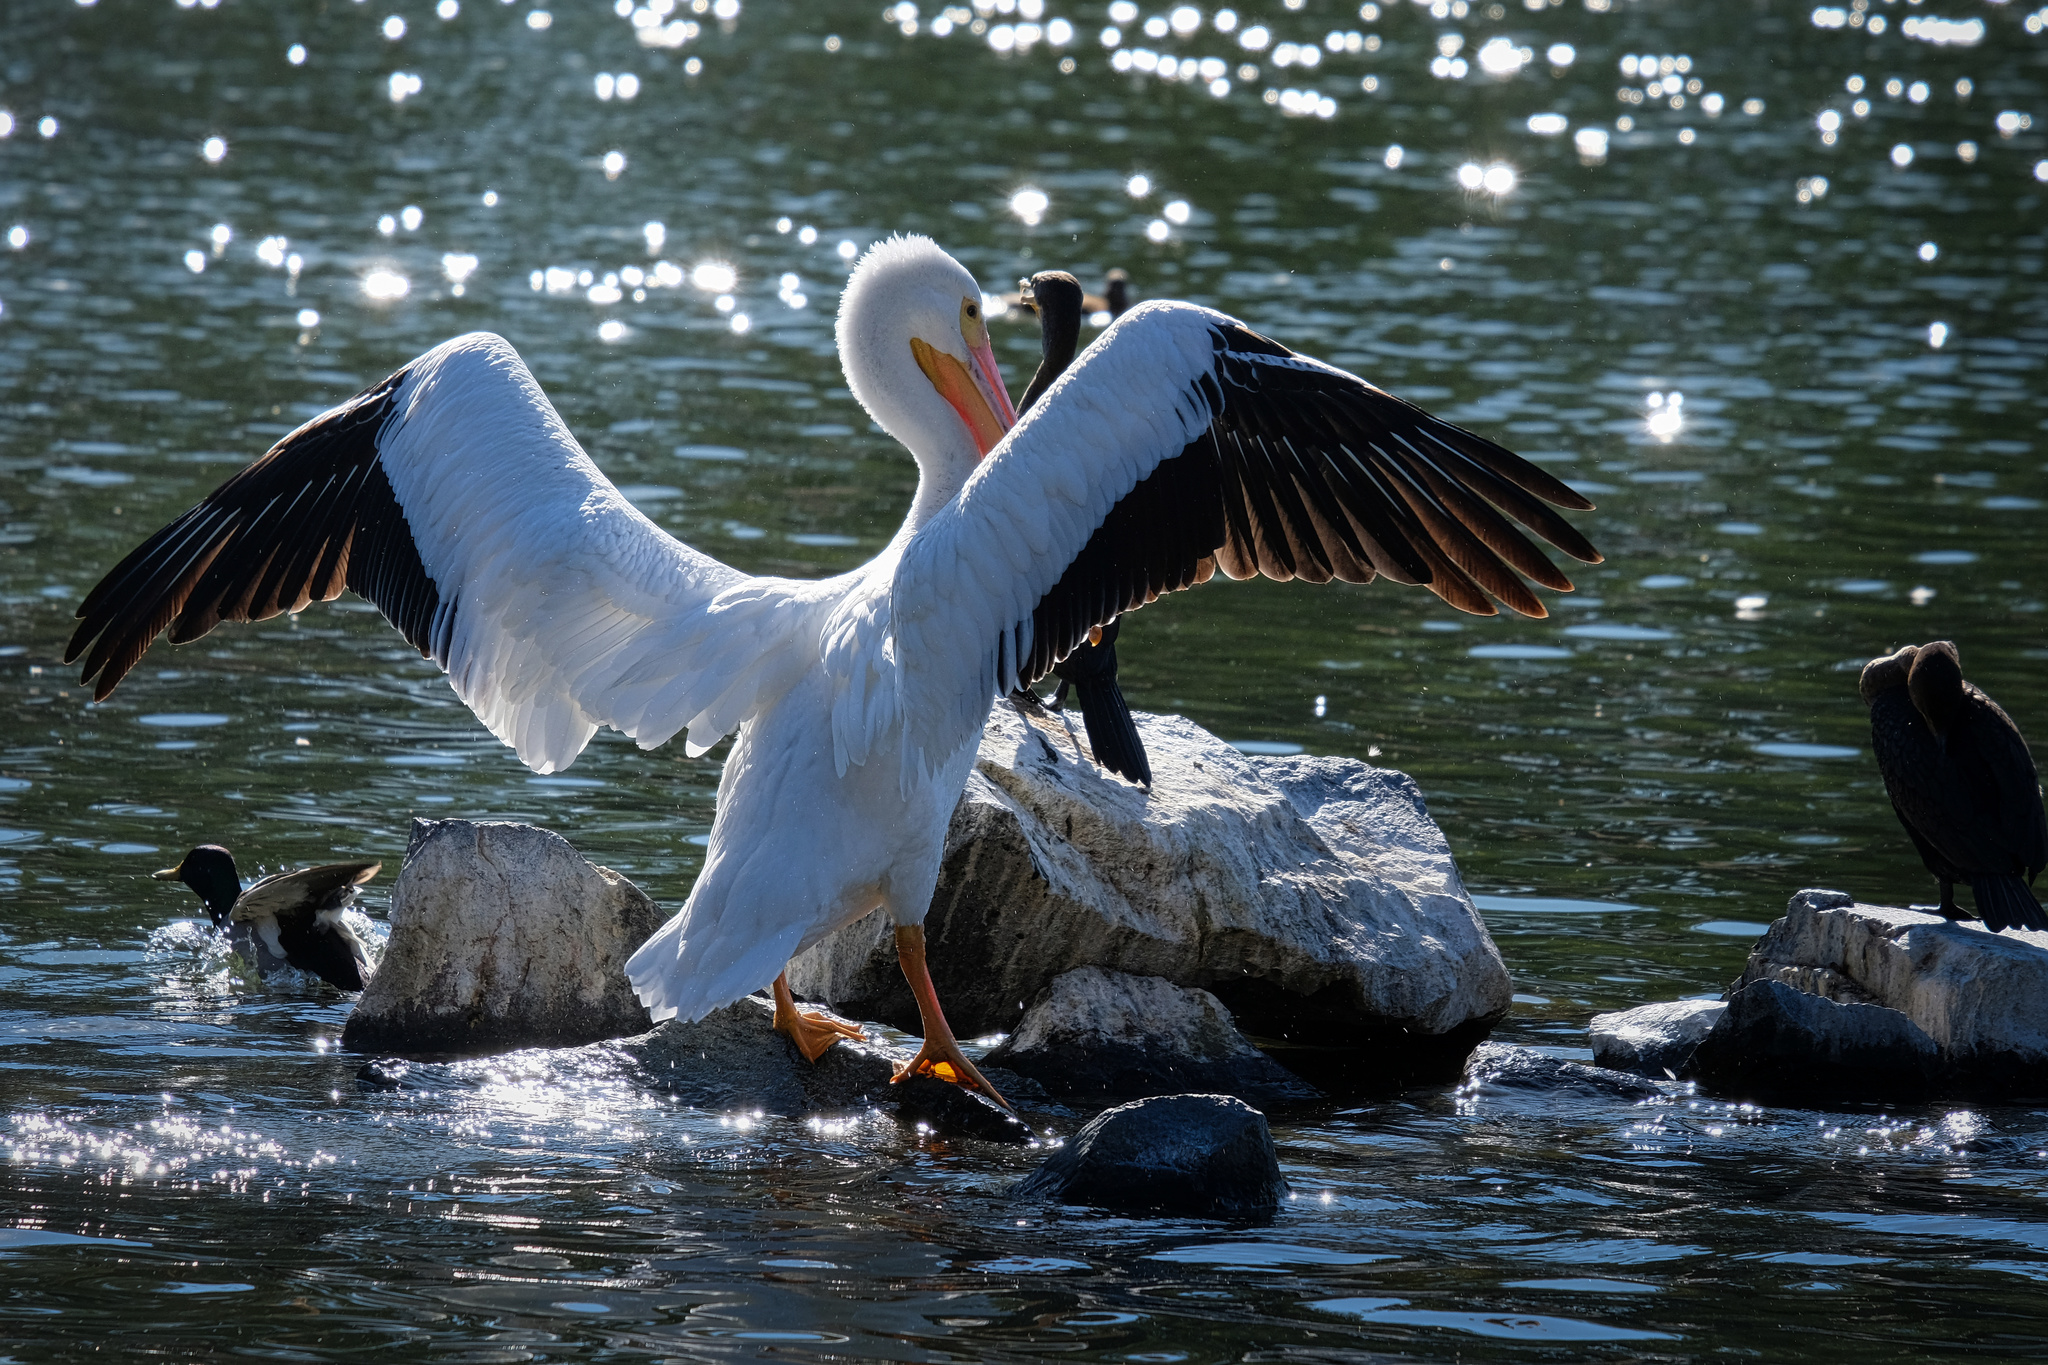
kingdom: Animalia
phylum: Chordata
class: Aves
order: Pelecaniformes
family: Pelecanidae
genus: Pelecanus
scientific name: Pelecanus erythrorhynchos
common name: American white pelican
